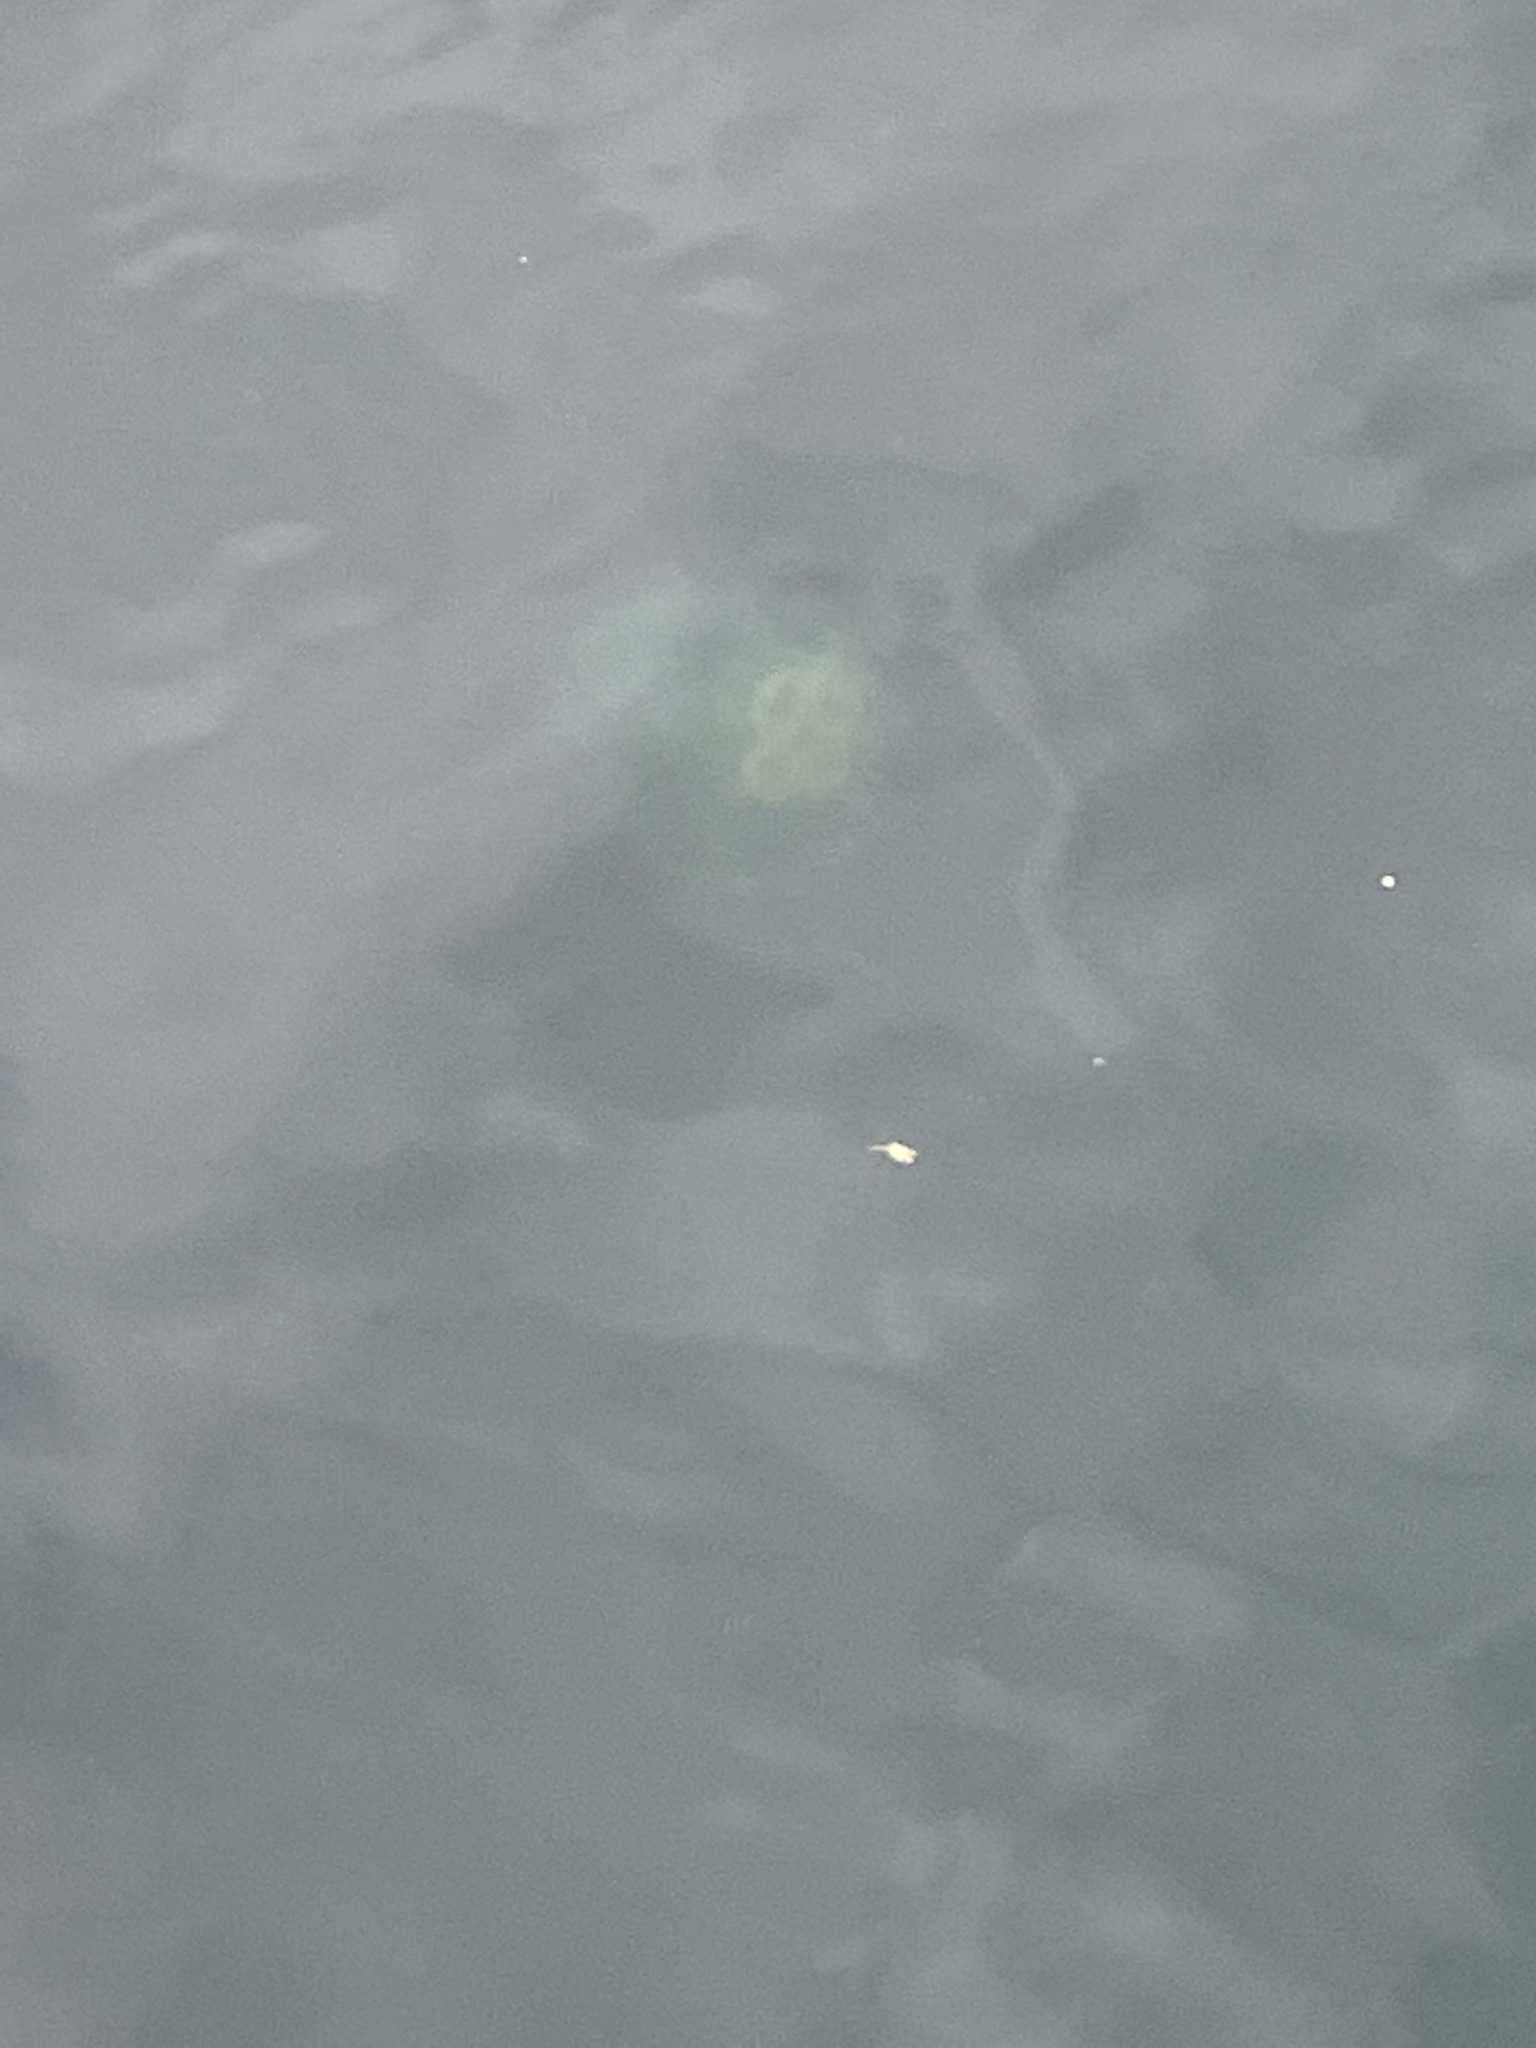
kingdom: Animalia
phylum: Cnidaria
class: Scyphozoa
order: Semaeostomeae
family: Ulmaridae
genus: Aurelia
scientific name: Aurelia labiata
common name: Pacific moon jelly
